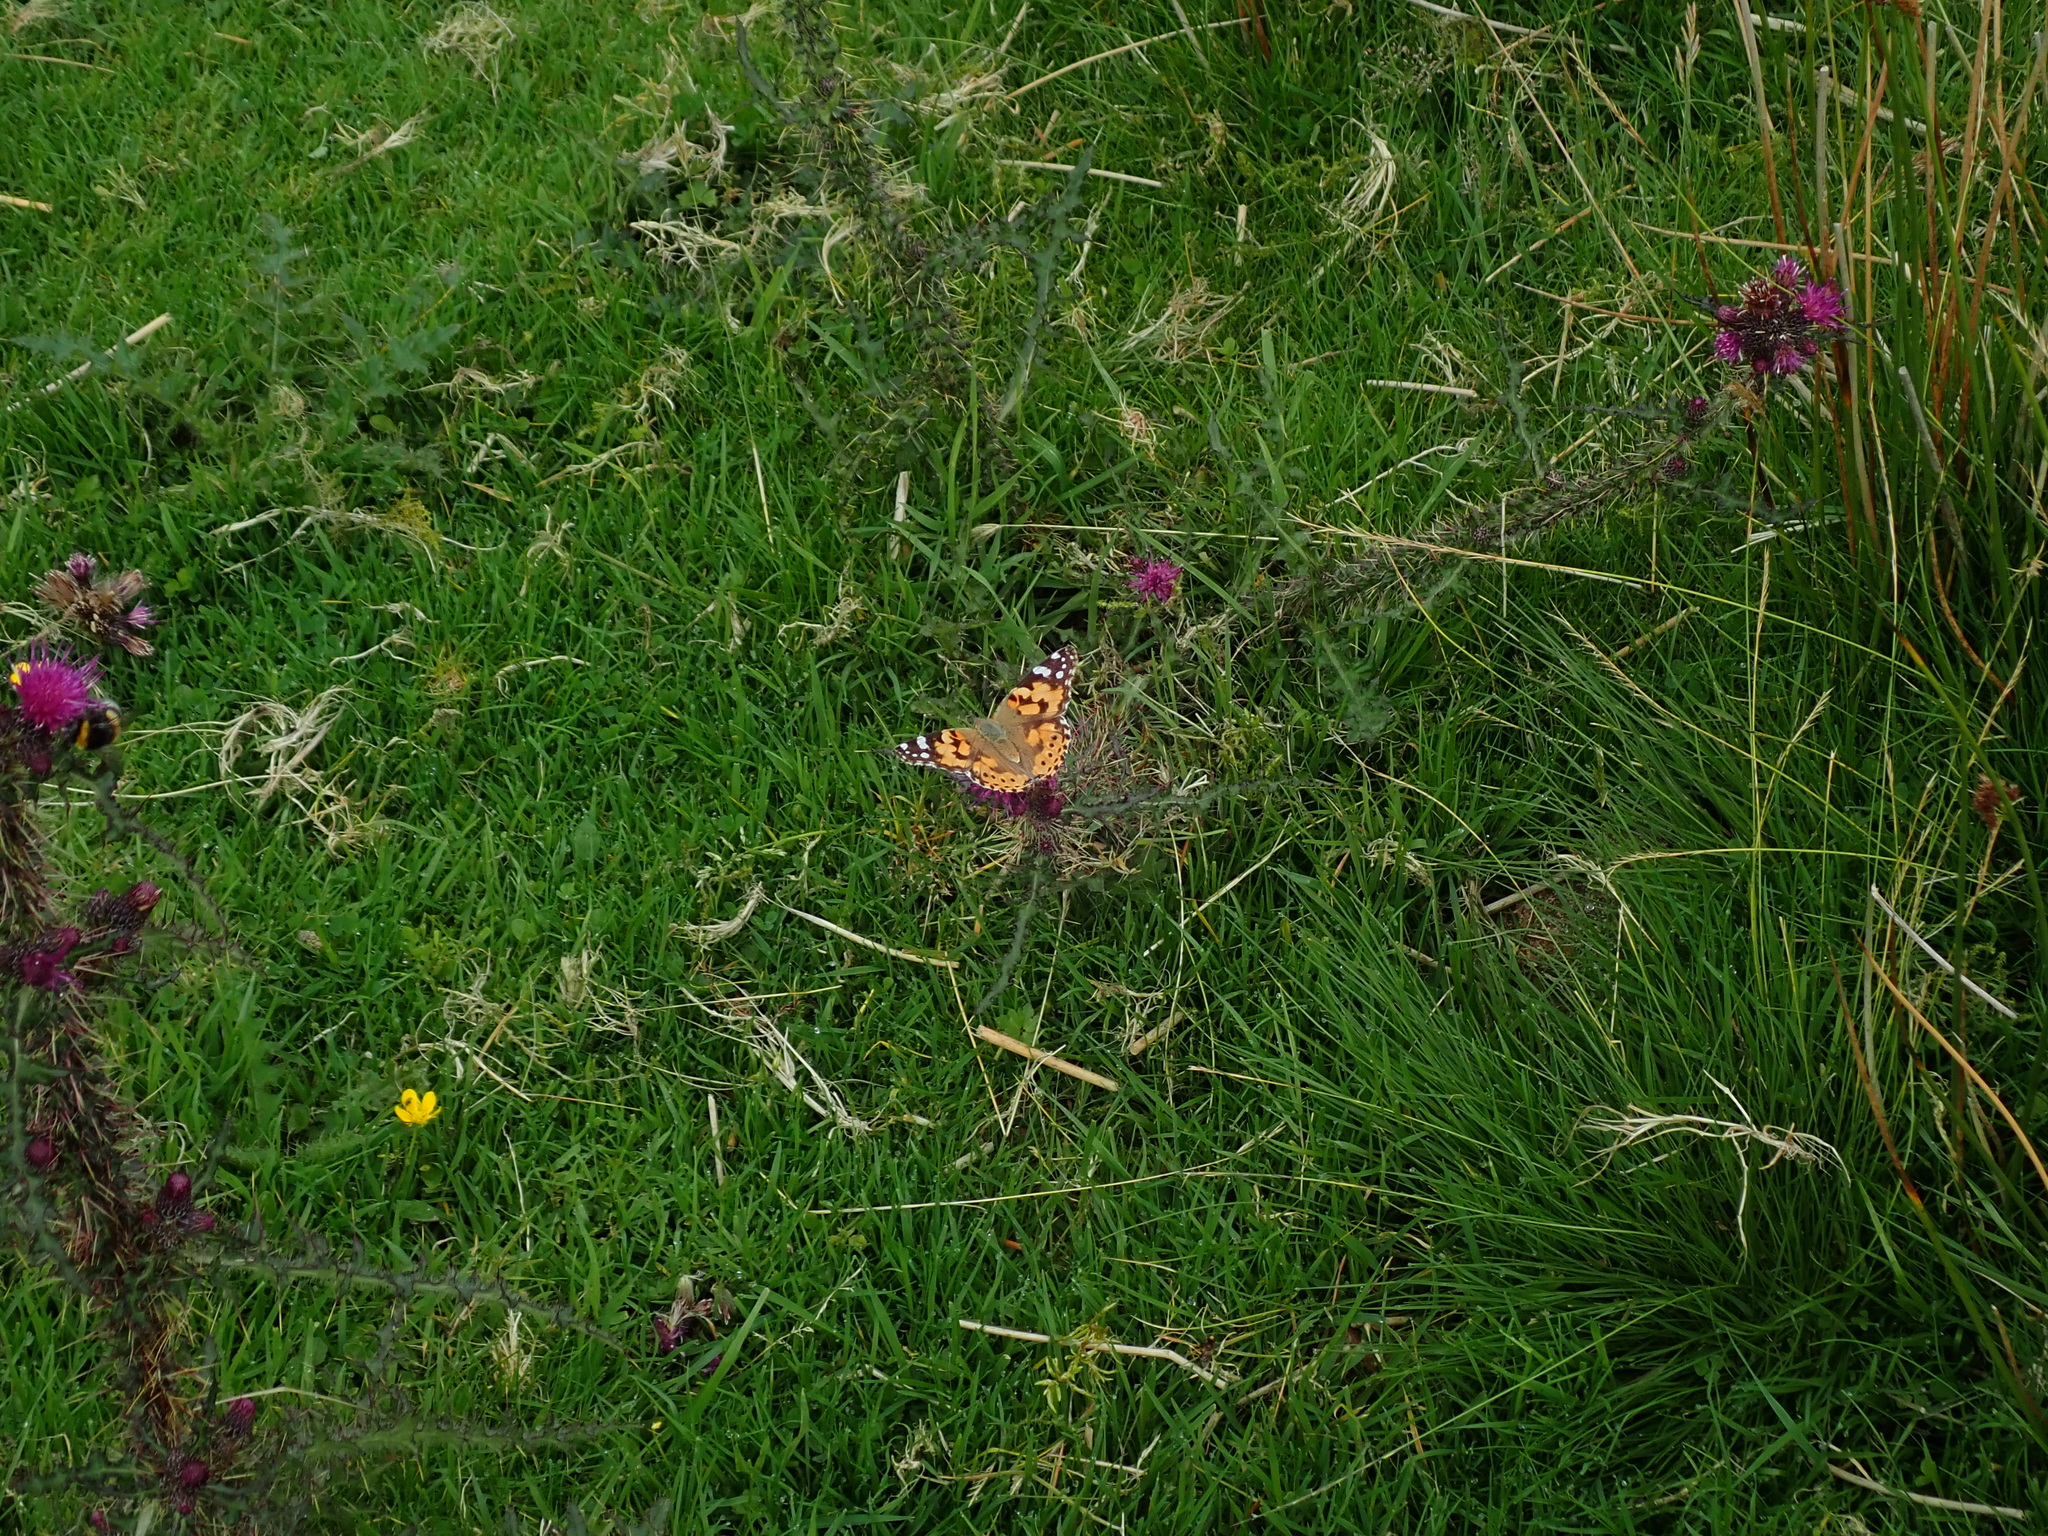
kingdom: Animalia
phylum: Arthropoda
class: Insecta
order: Lepidoptera
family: Nymphalidae
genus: Vanessa
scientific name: Vanessa cardui
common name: Painted lady
